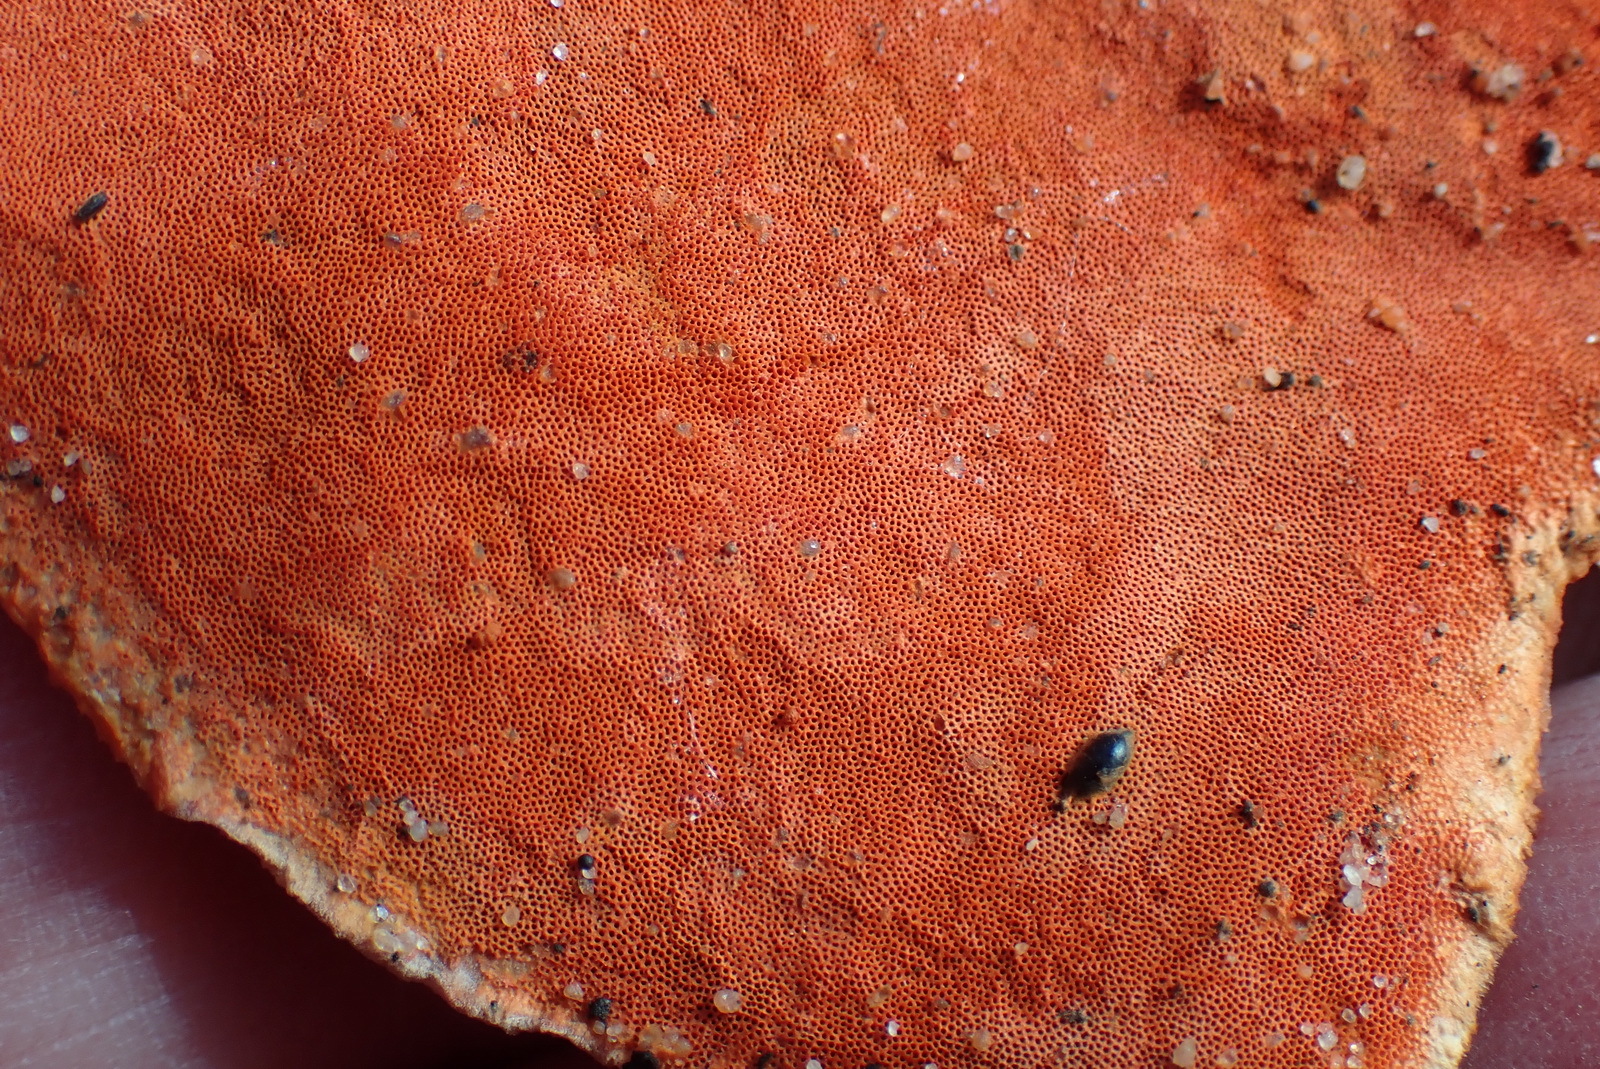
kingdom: Fungi
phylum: Basidiomycota
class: Agaricomycetes
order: Polyporales
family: Polyporaceae
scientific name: Polyporaceae
